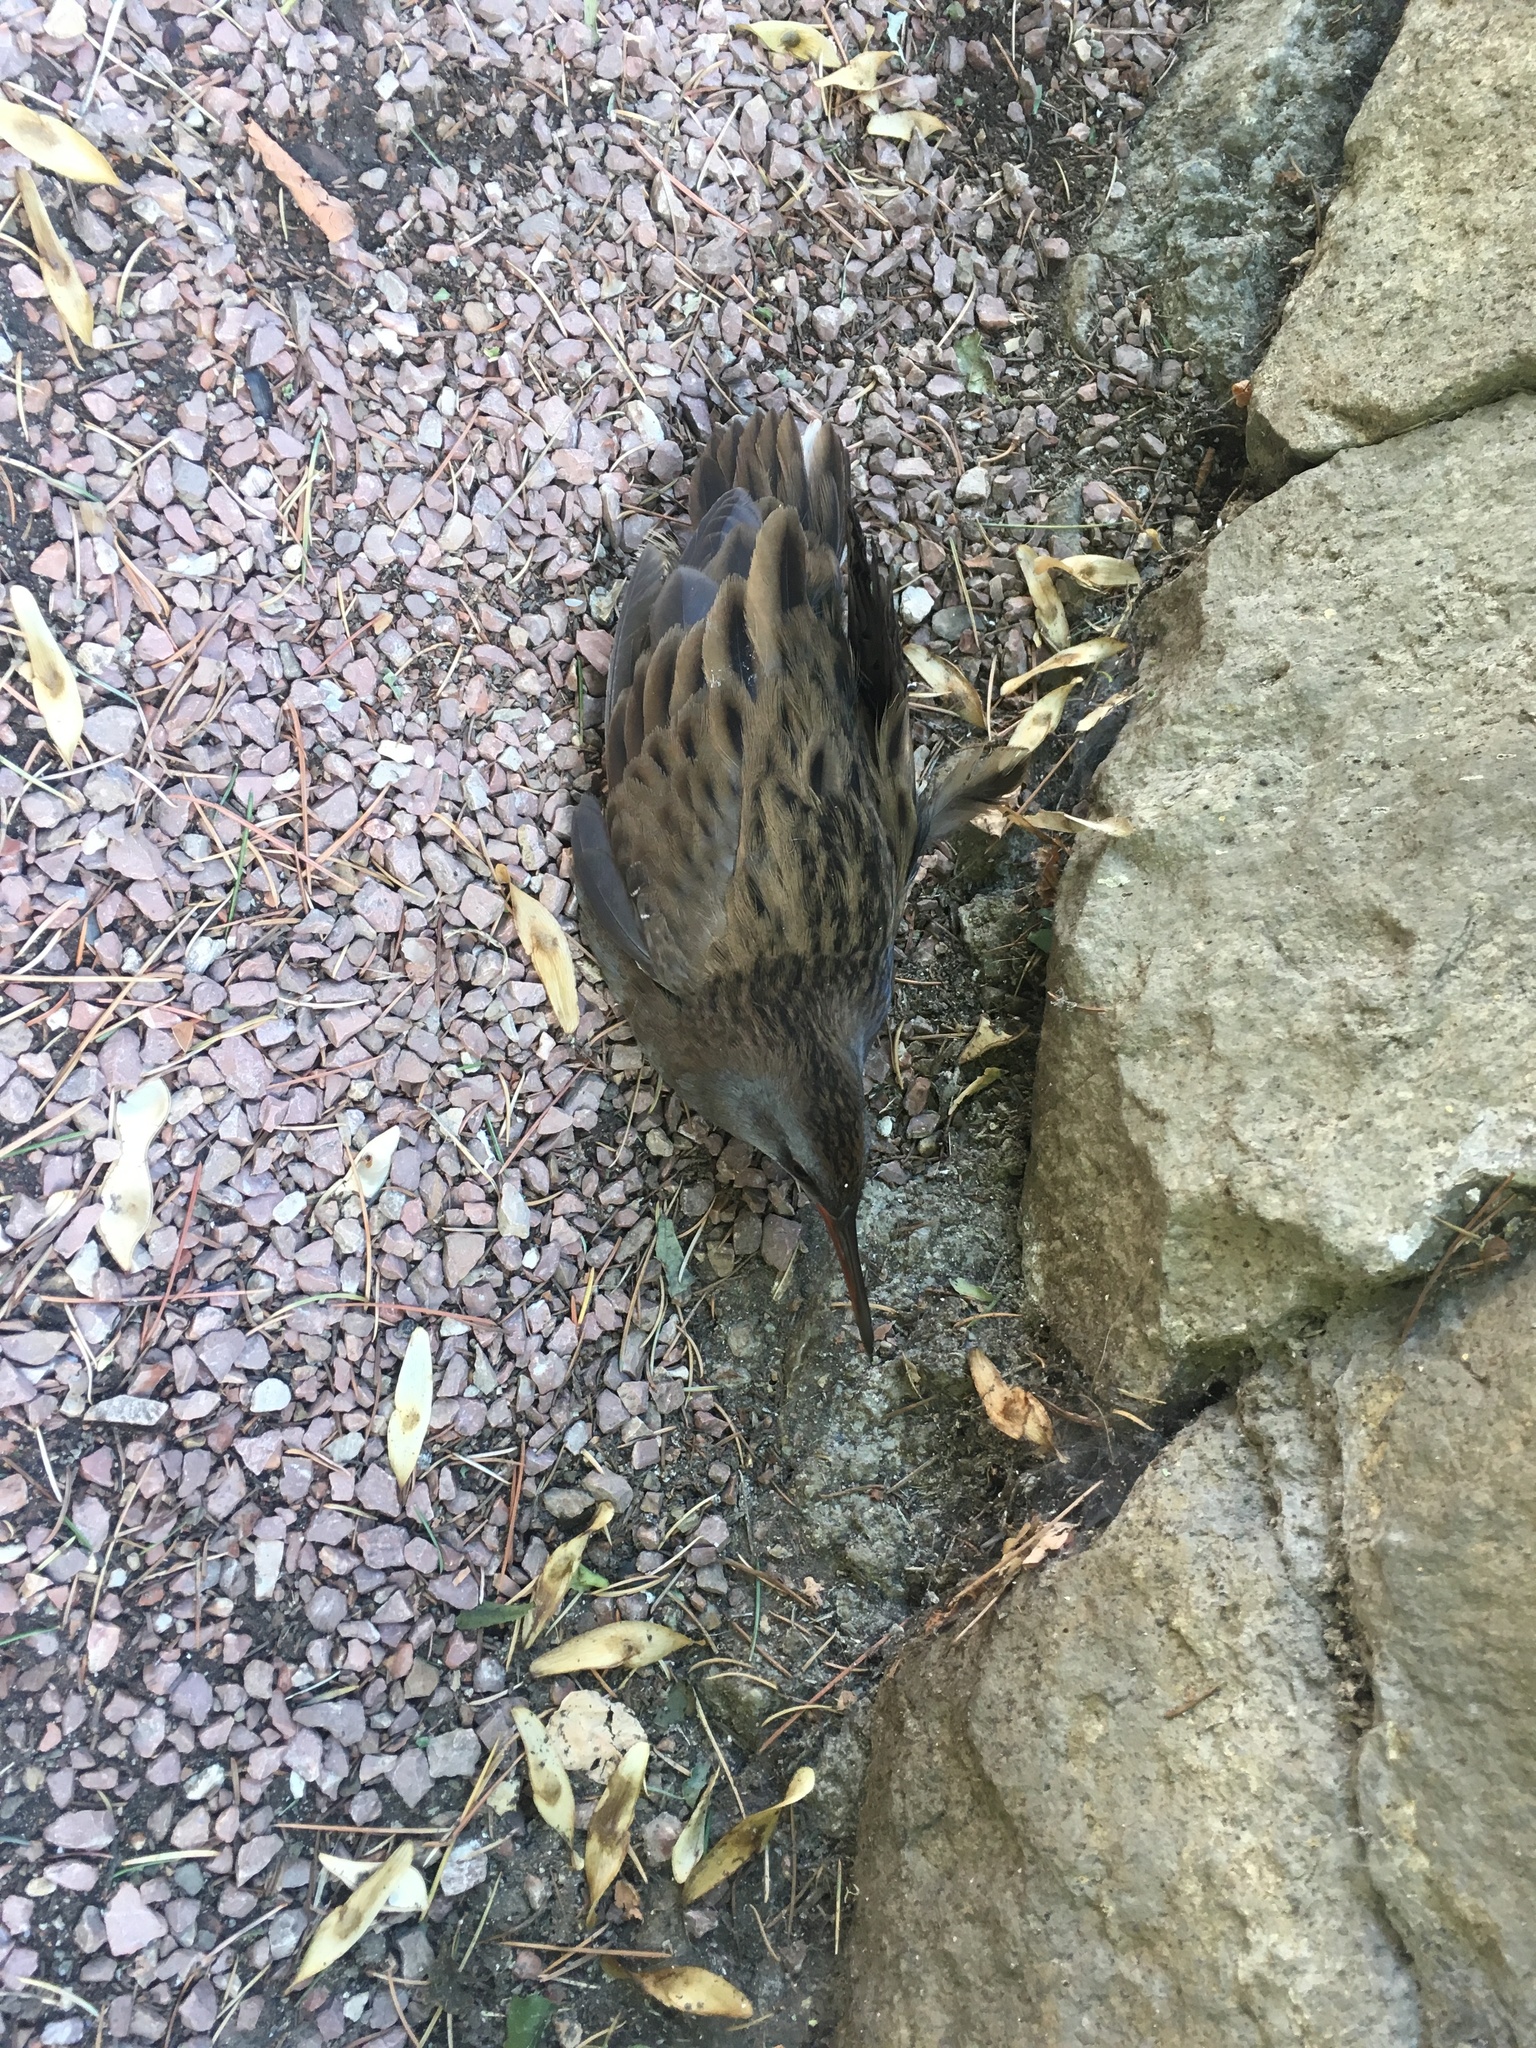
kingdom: Animalia
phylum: Chordata
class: Aves
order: Gruiformes
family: Rallidae
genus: Rallus
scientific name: Rallus aquaticus
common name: Water rail
